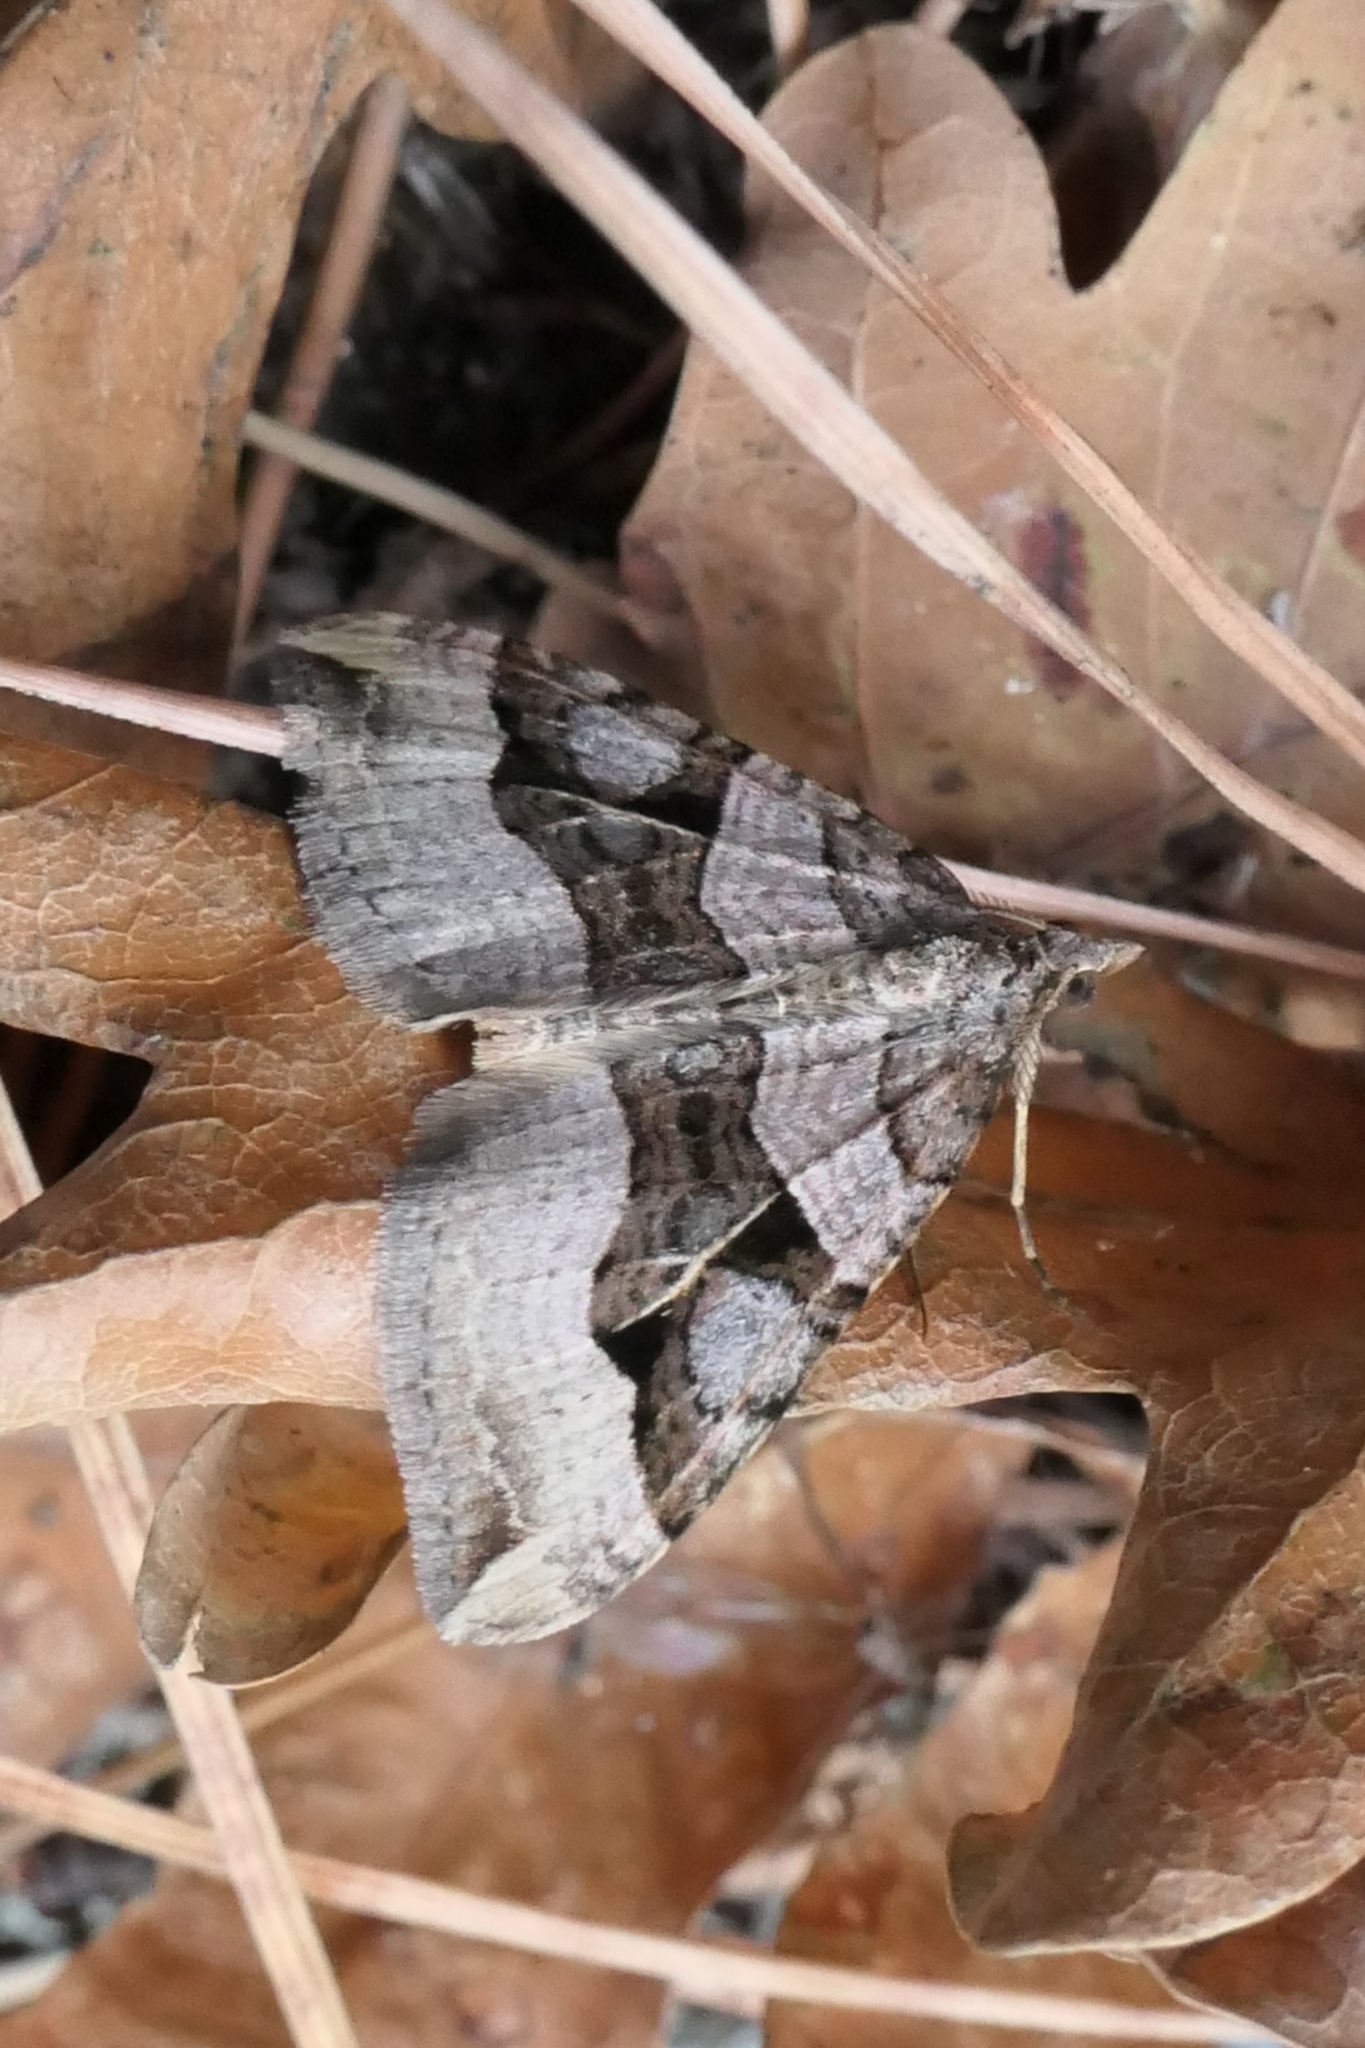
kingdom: Animalia
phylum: Arthropoda
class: Insecta
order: Lepidoptera
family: Geometridae
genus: Xanthorhoe
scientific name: Xanthorhoe semifissata
